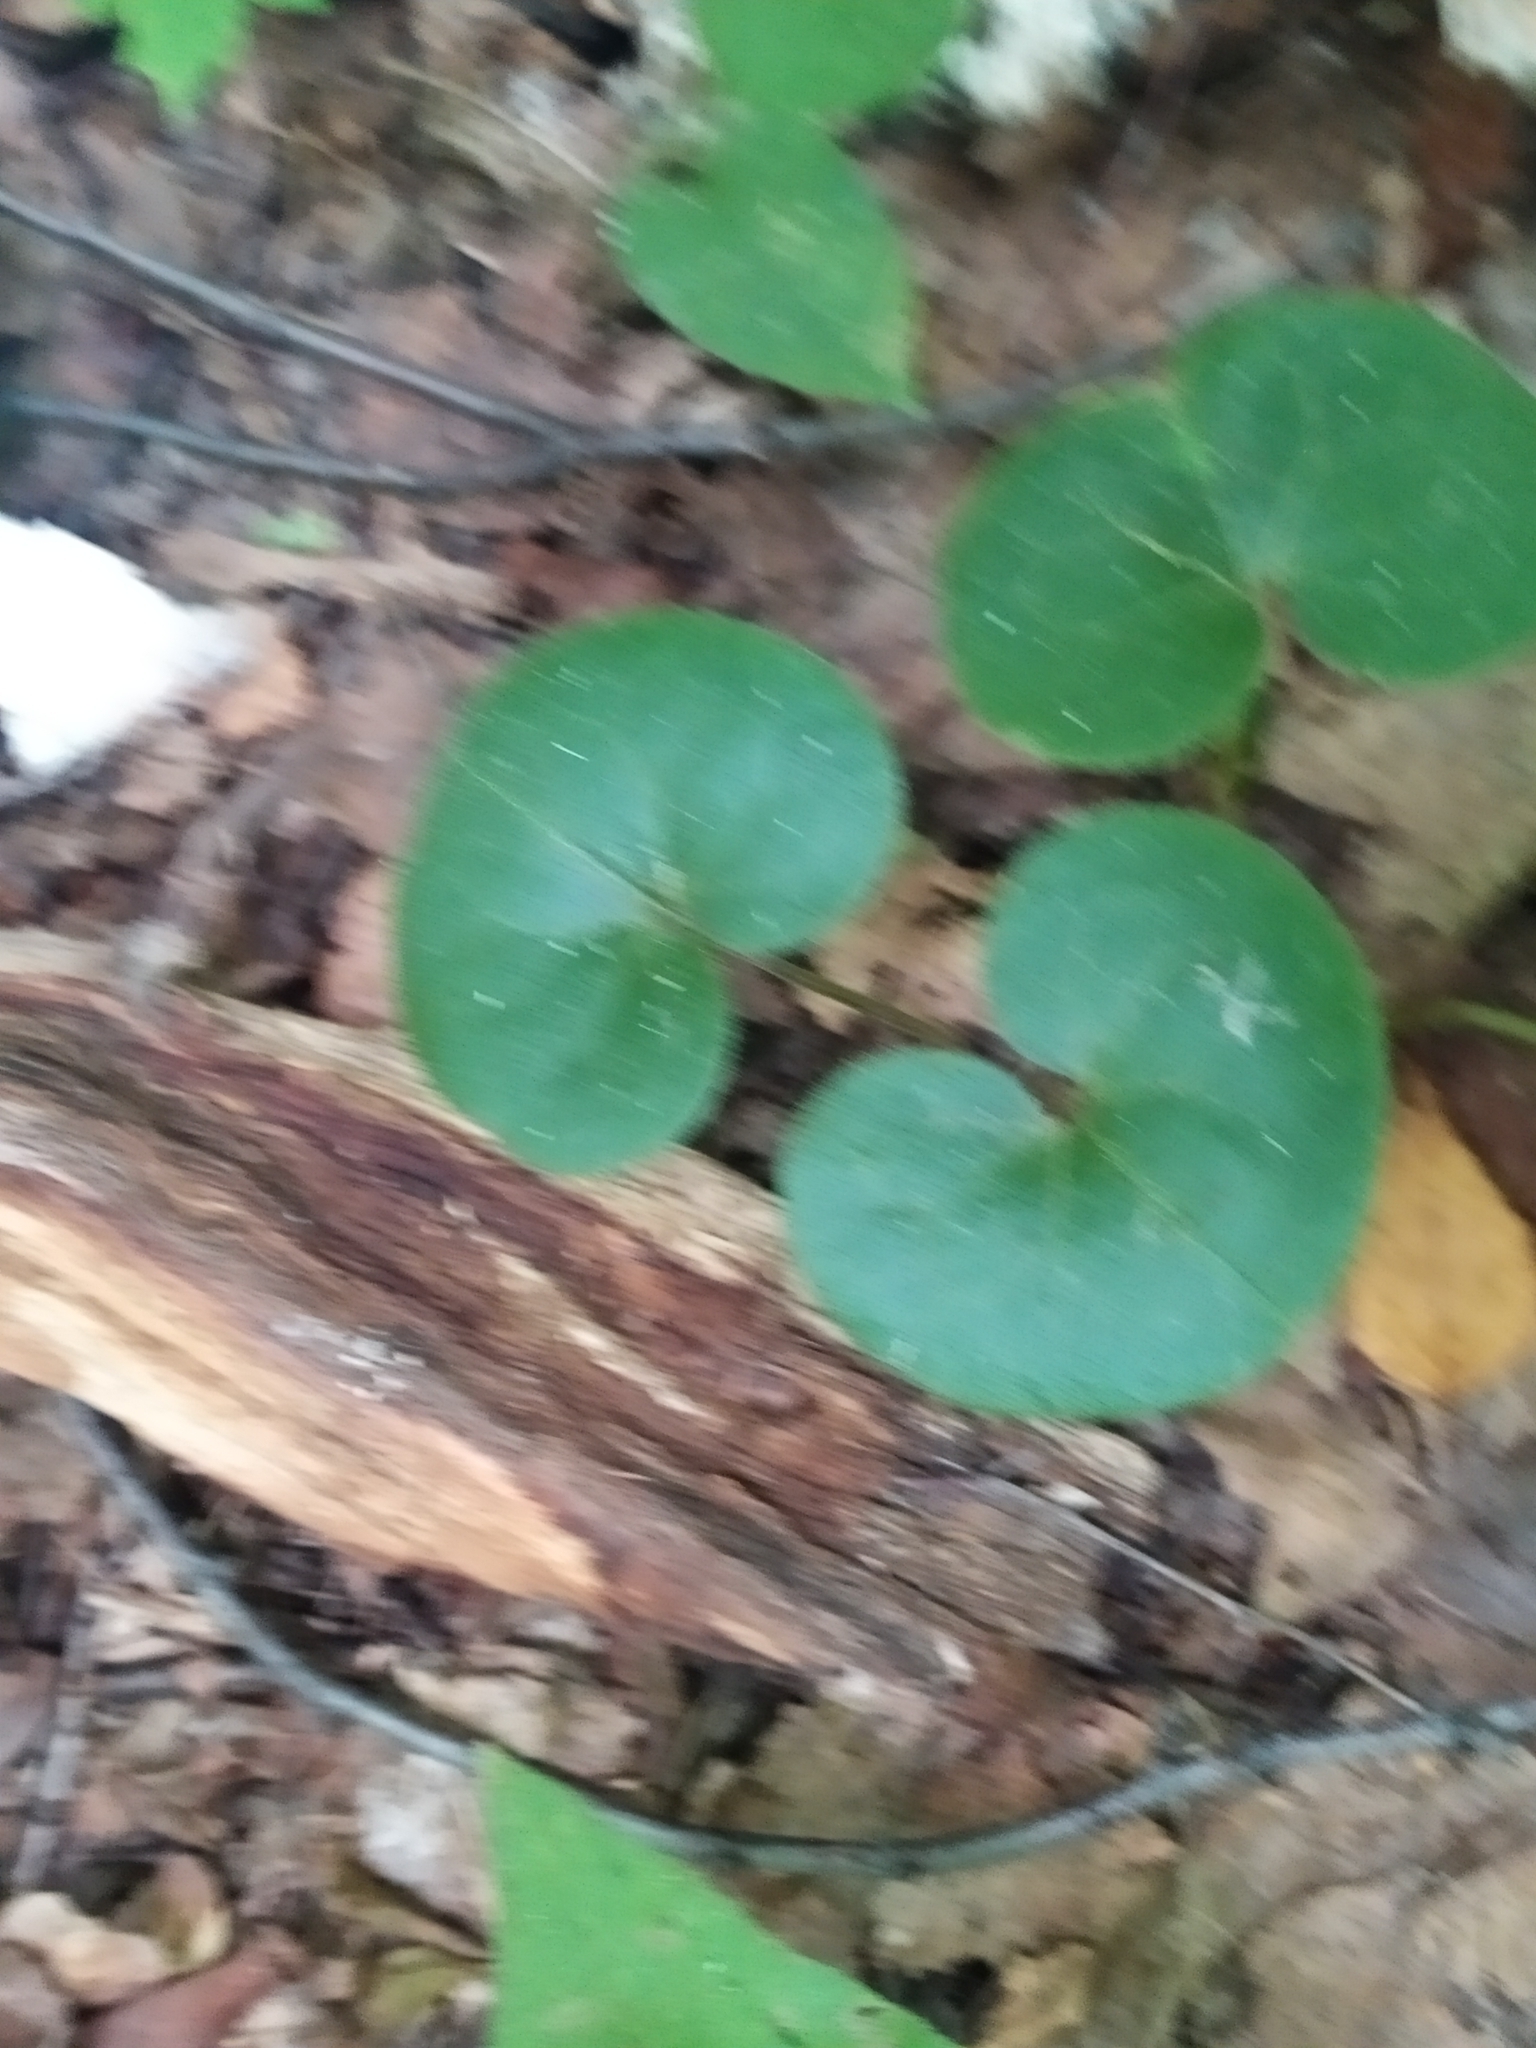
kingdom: Plantae
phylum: Tracheophyta
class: Magnoliopsida
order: Piperales
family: Aristolochiaceae
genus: Asarum
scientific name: Asarum europaeum
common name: Asarabacca
